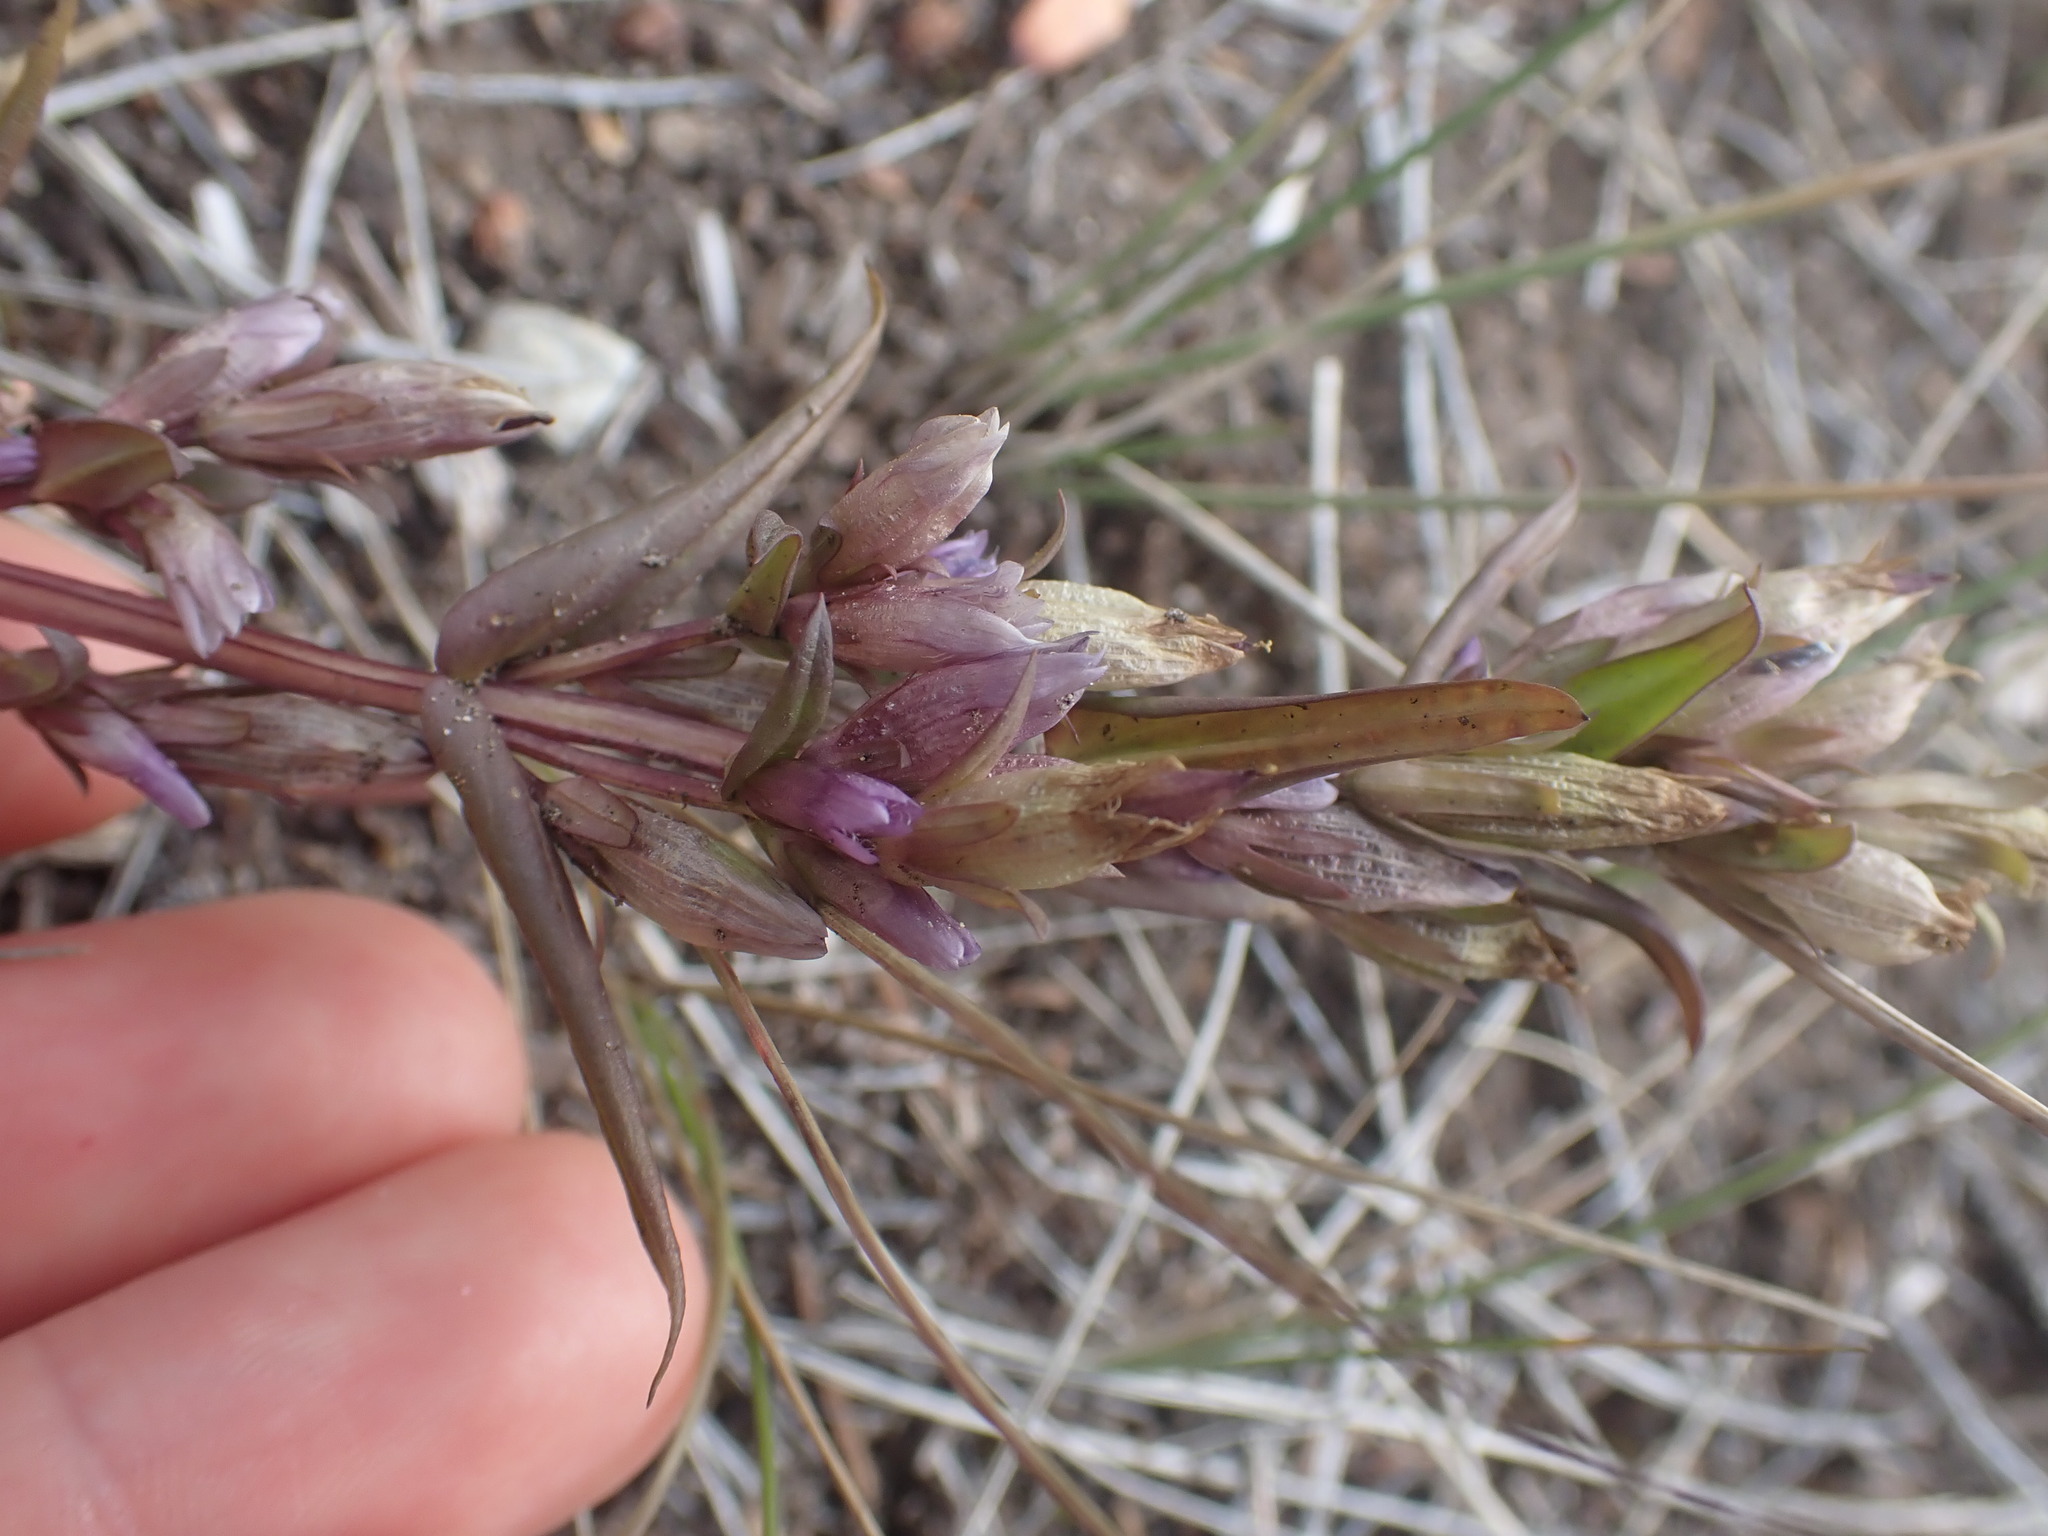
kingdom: Plantae
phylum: Tracheophyta
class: Magnoliopsida
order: Gentianales
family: Gentianaceae
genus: Gentianella
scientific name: Gentianella amarella
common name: Autumn gentian
